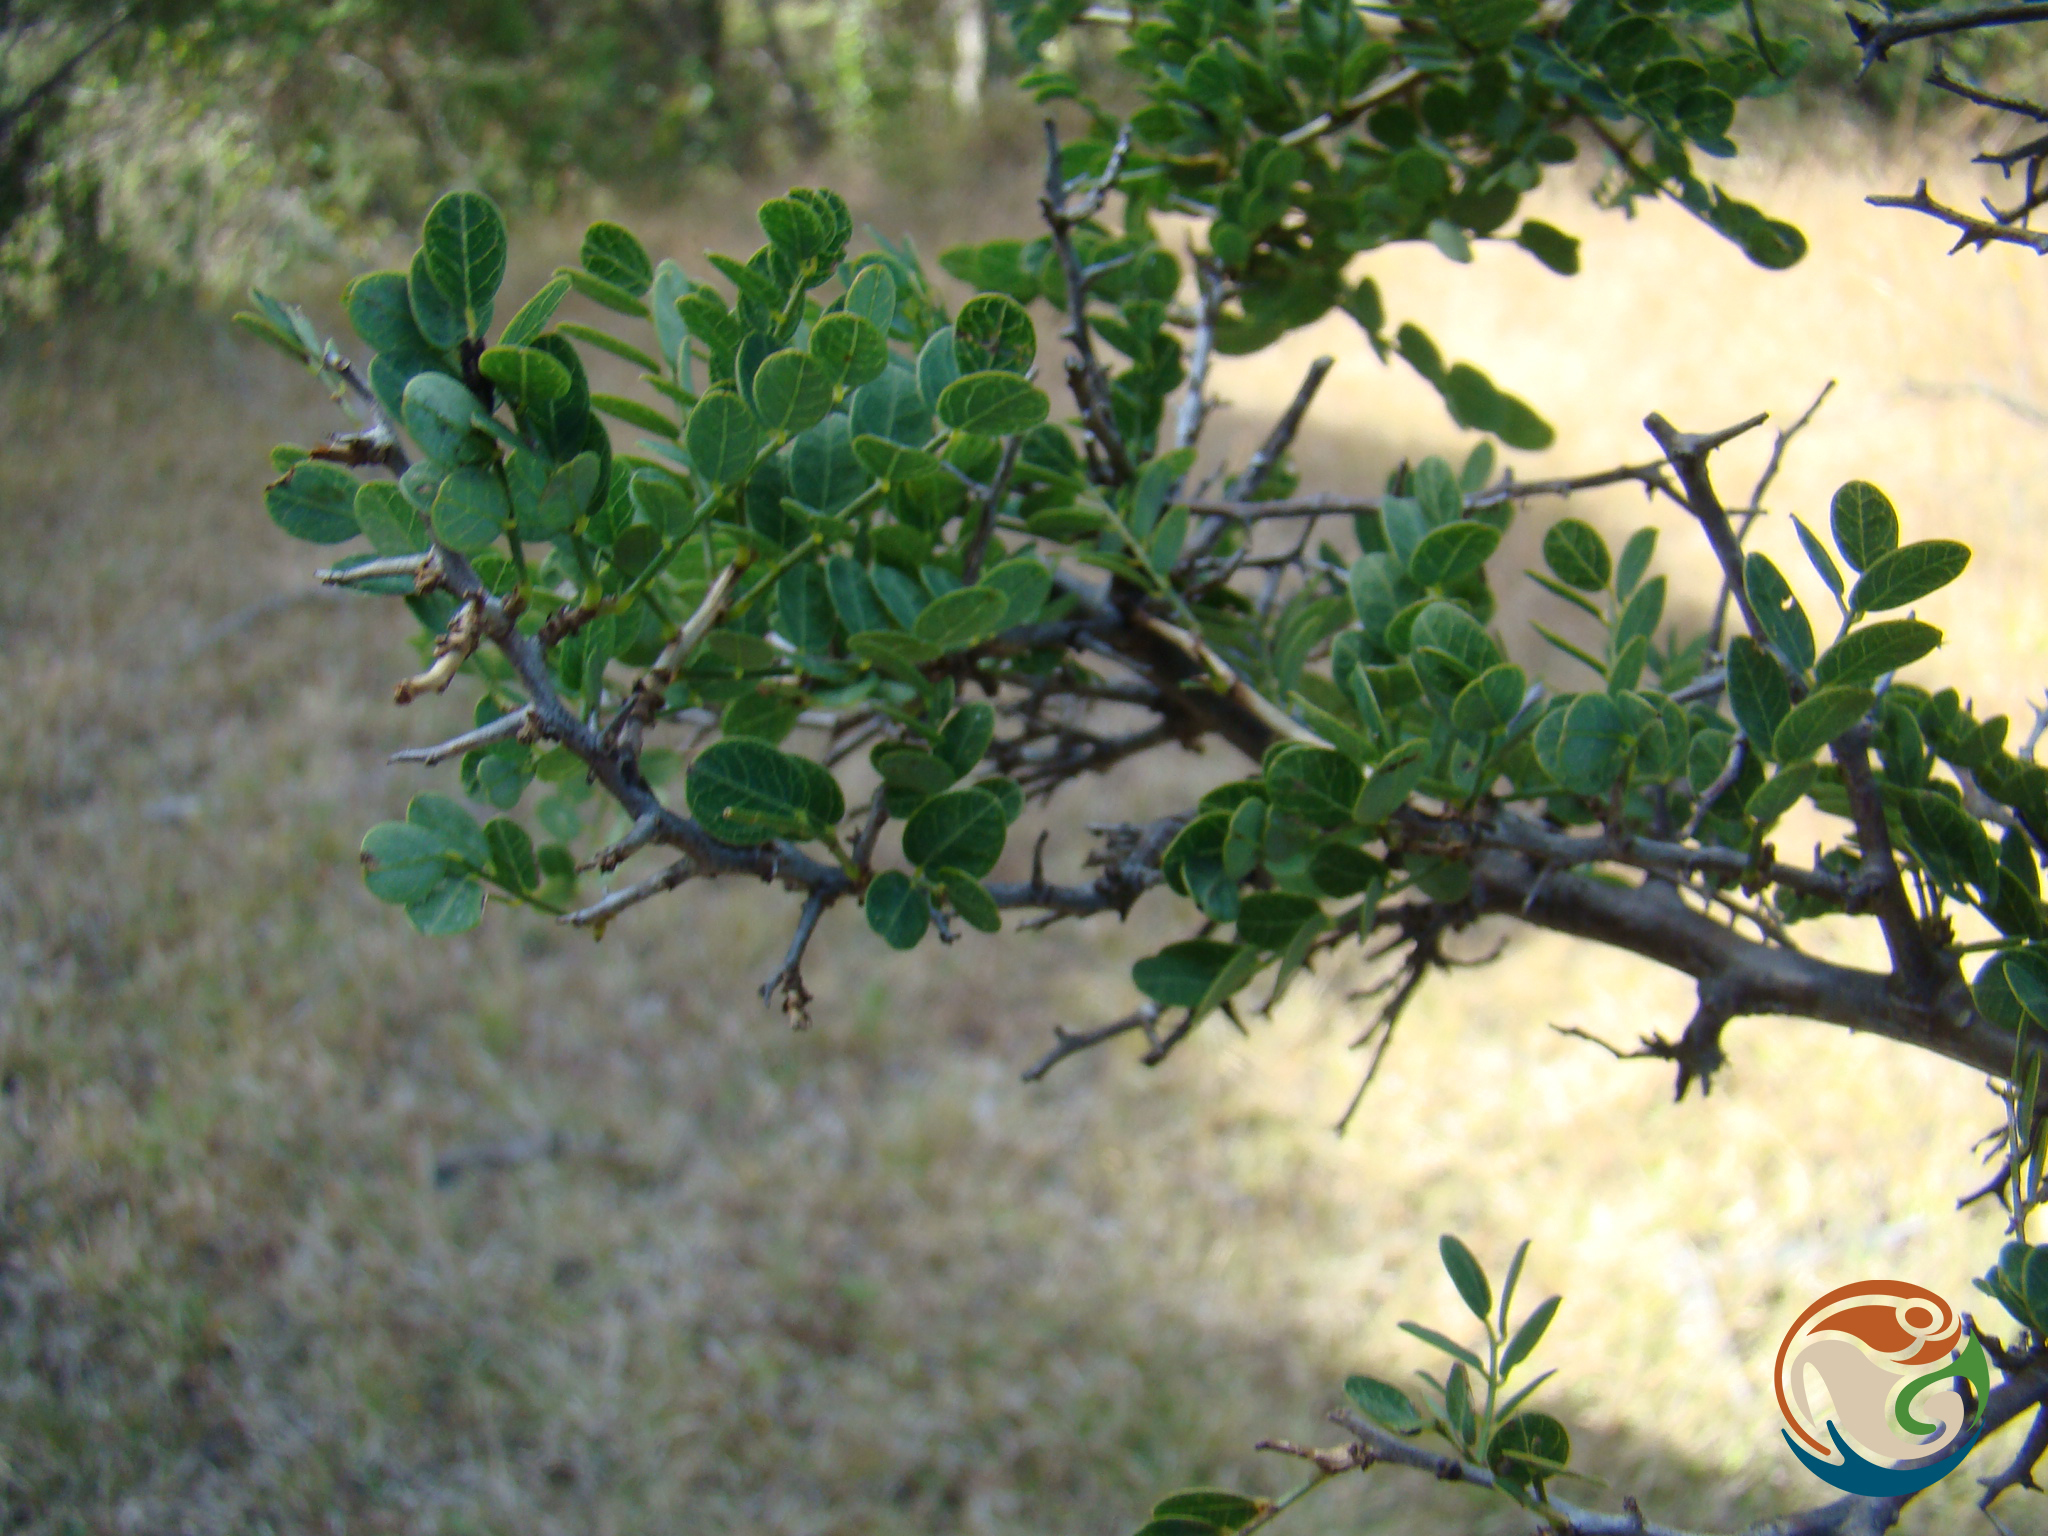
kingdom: Plantae
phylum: Tracheophyta
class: Magnoliopsida
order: Fabales
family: Fabaceae
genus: Diphysa
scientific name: Diphysa suberosa
